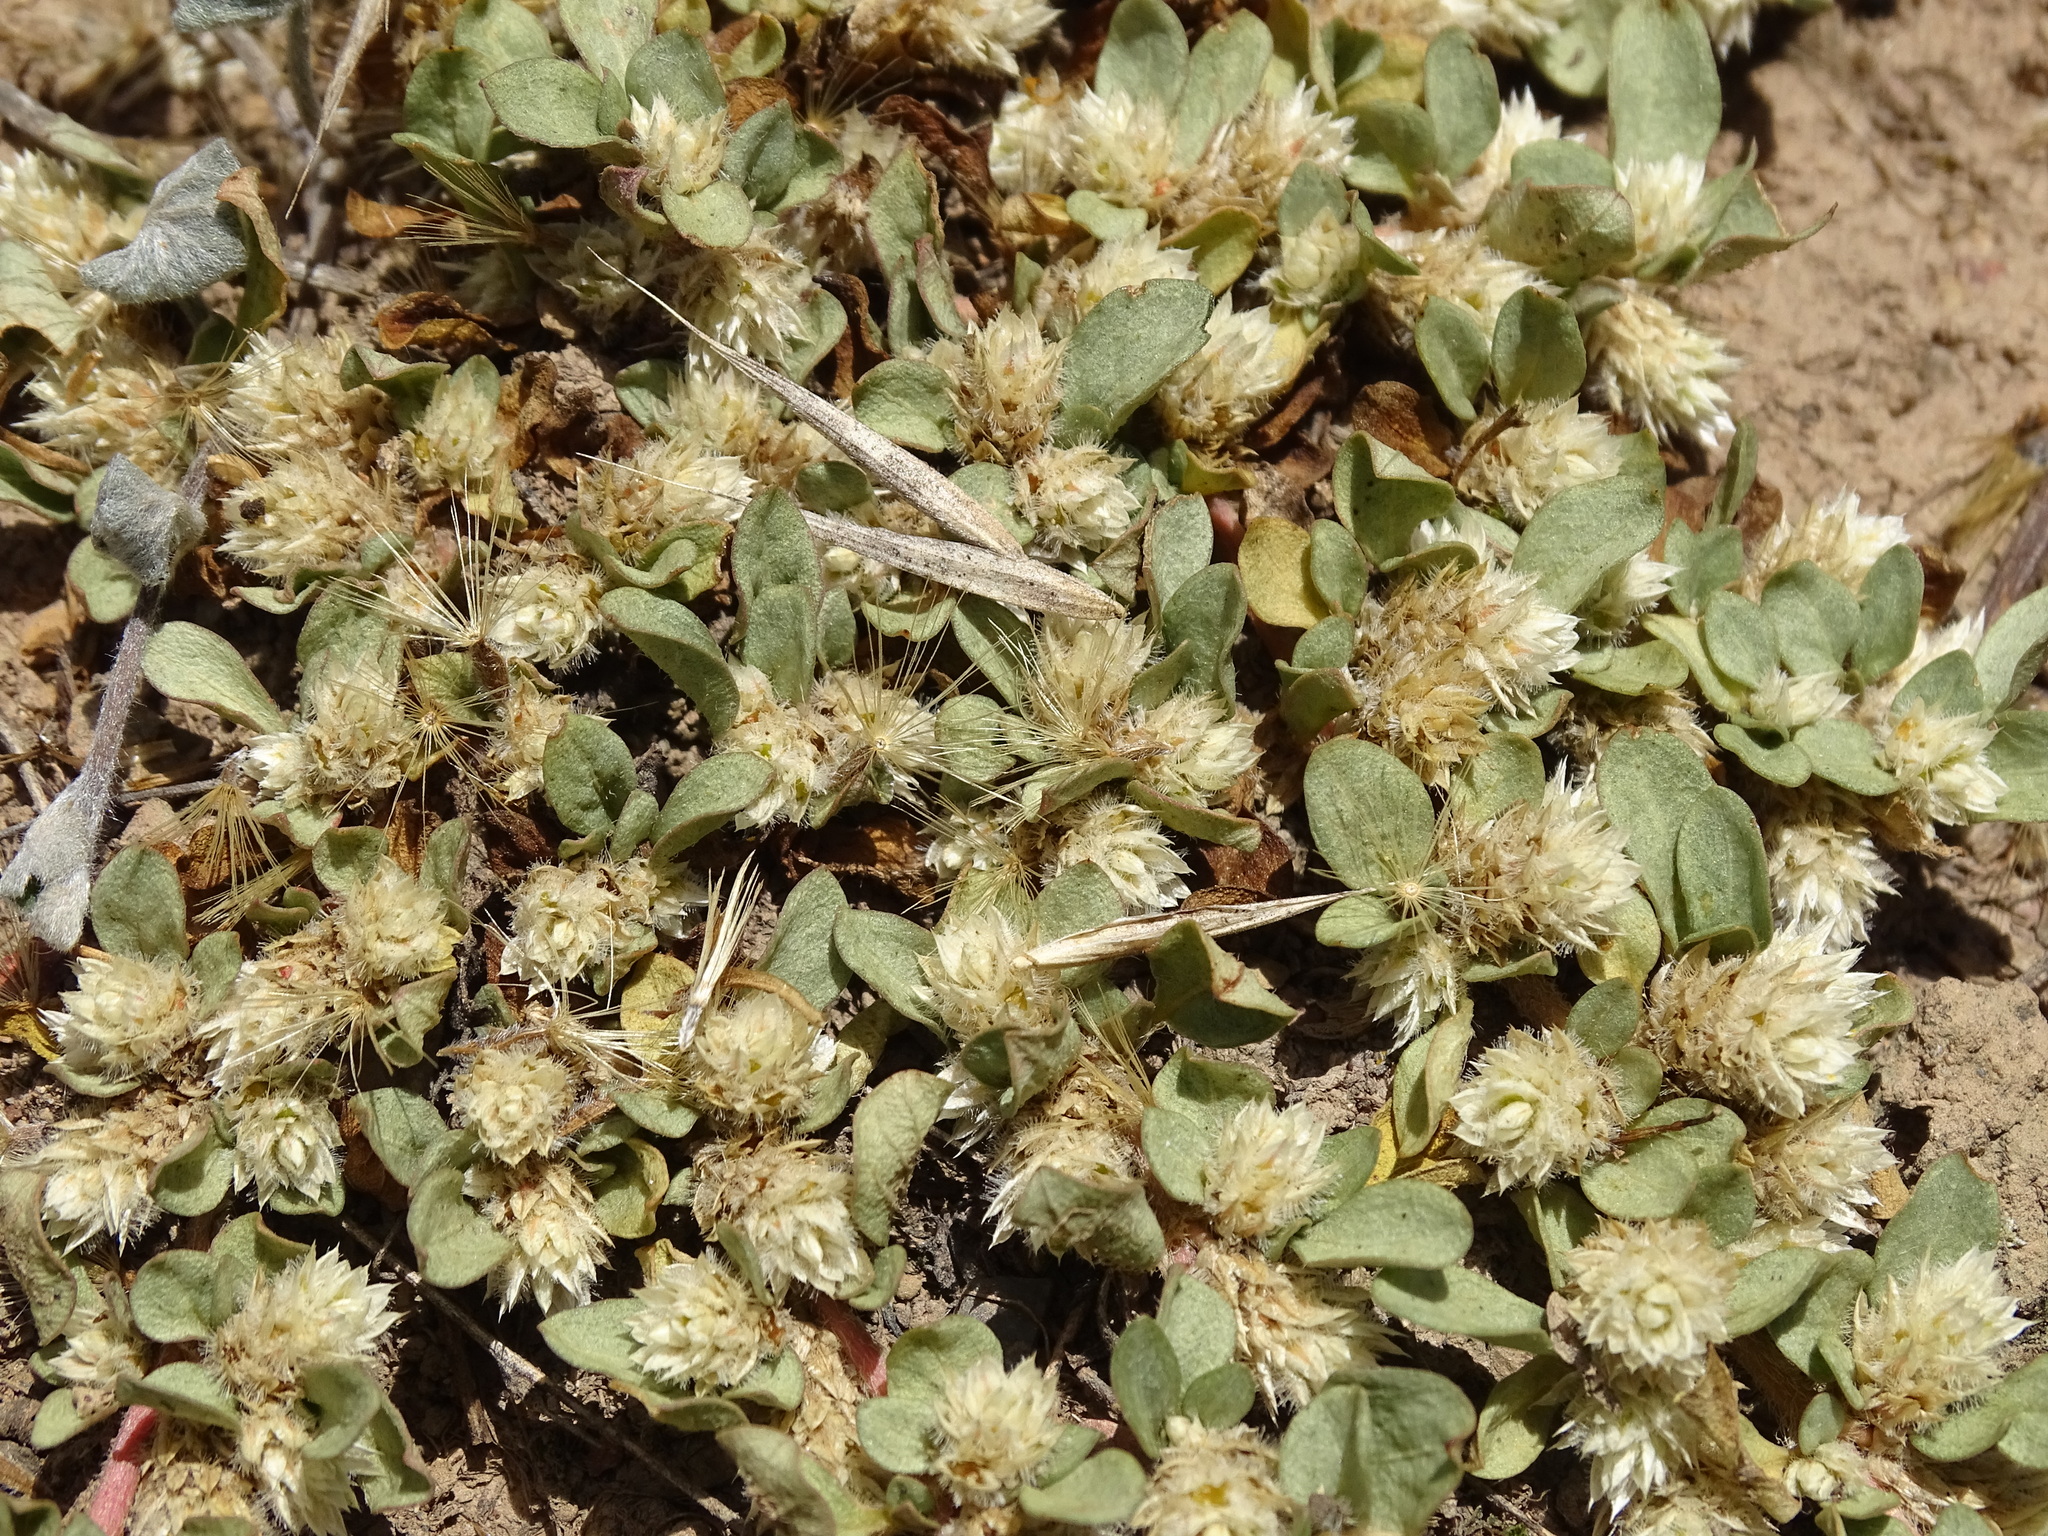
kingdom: Plantae
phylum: Tracheophyta
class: Magnoliopsida
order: Caryophyllales
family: Amaranthaceae
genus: Alternanthera
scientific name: Alternanthera caracasana
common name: Washerwoman
